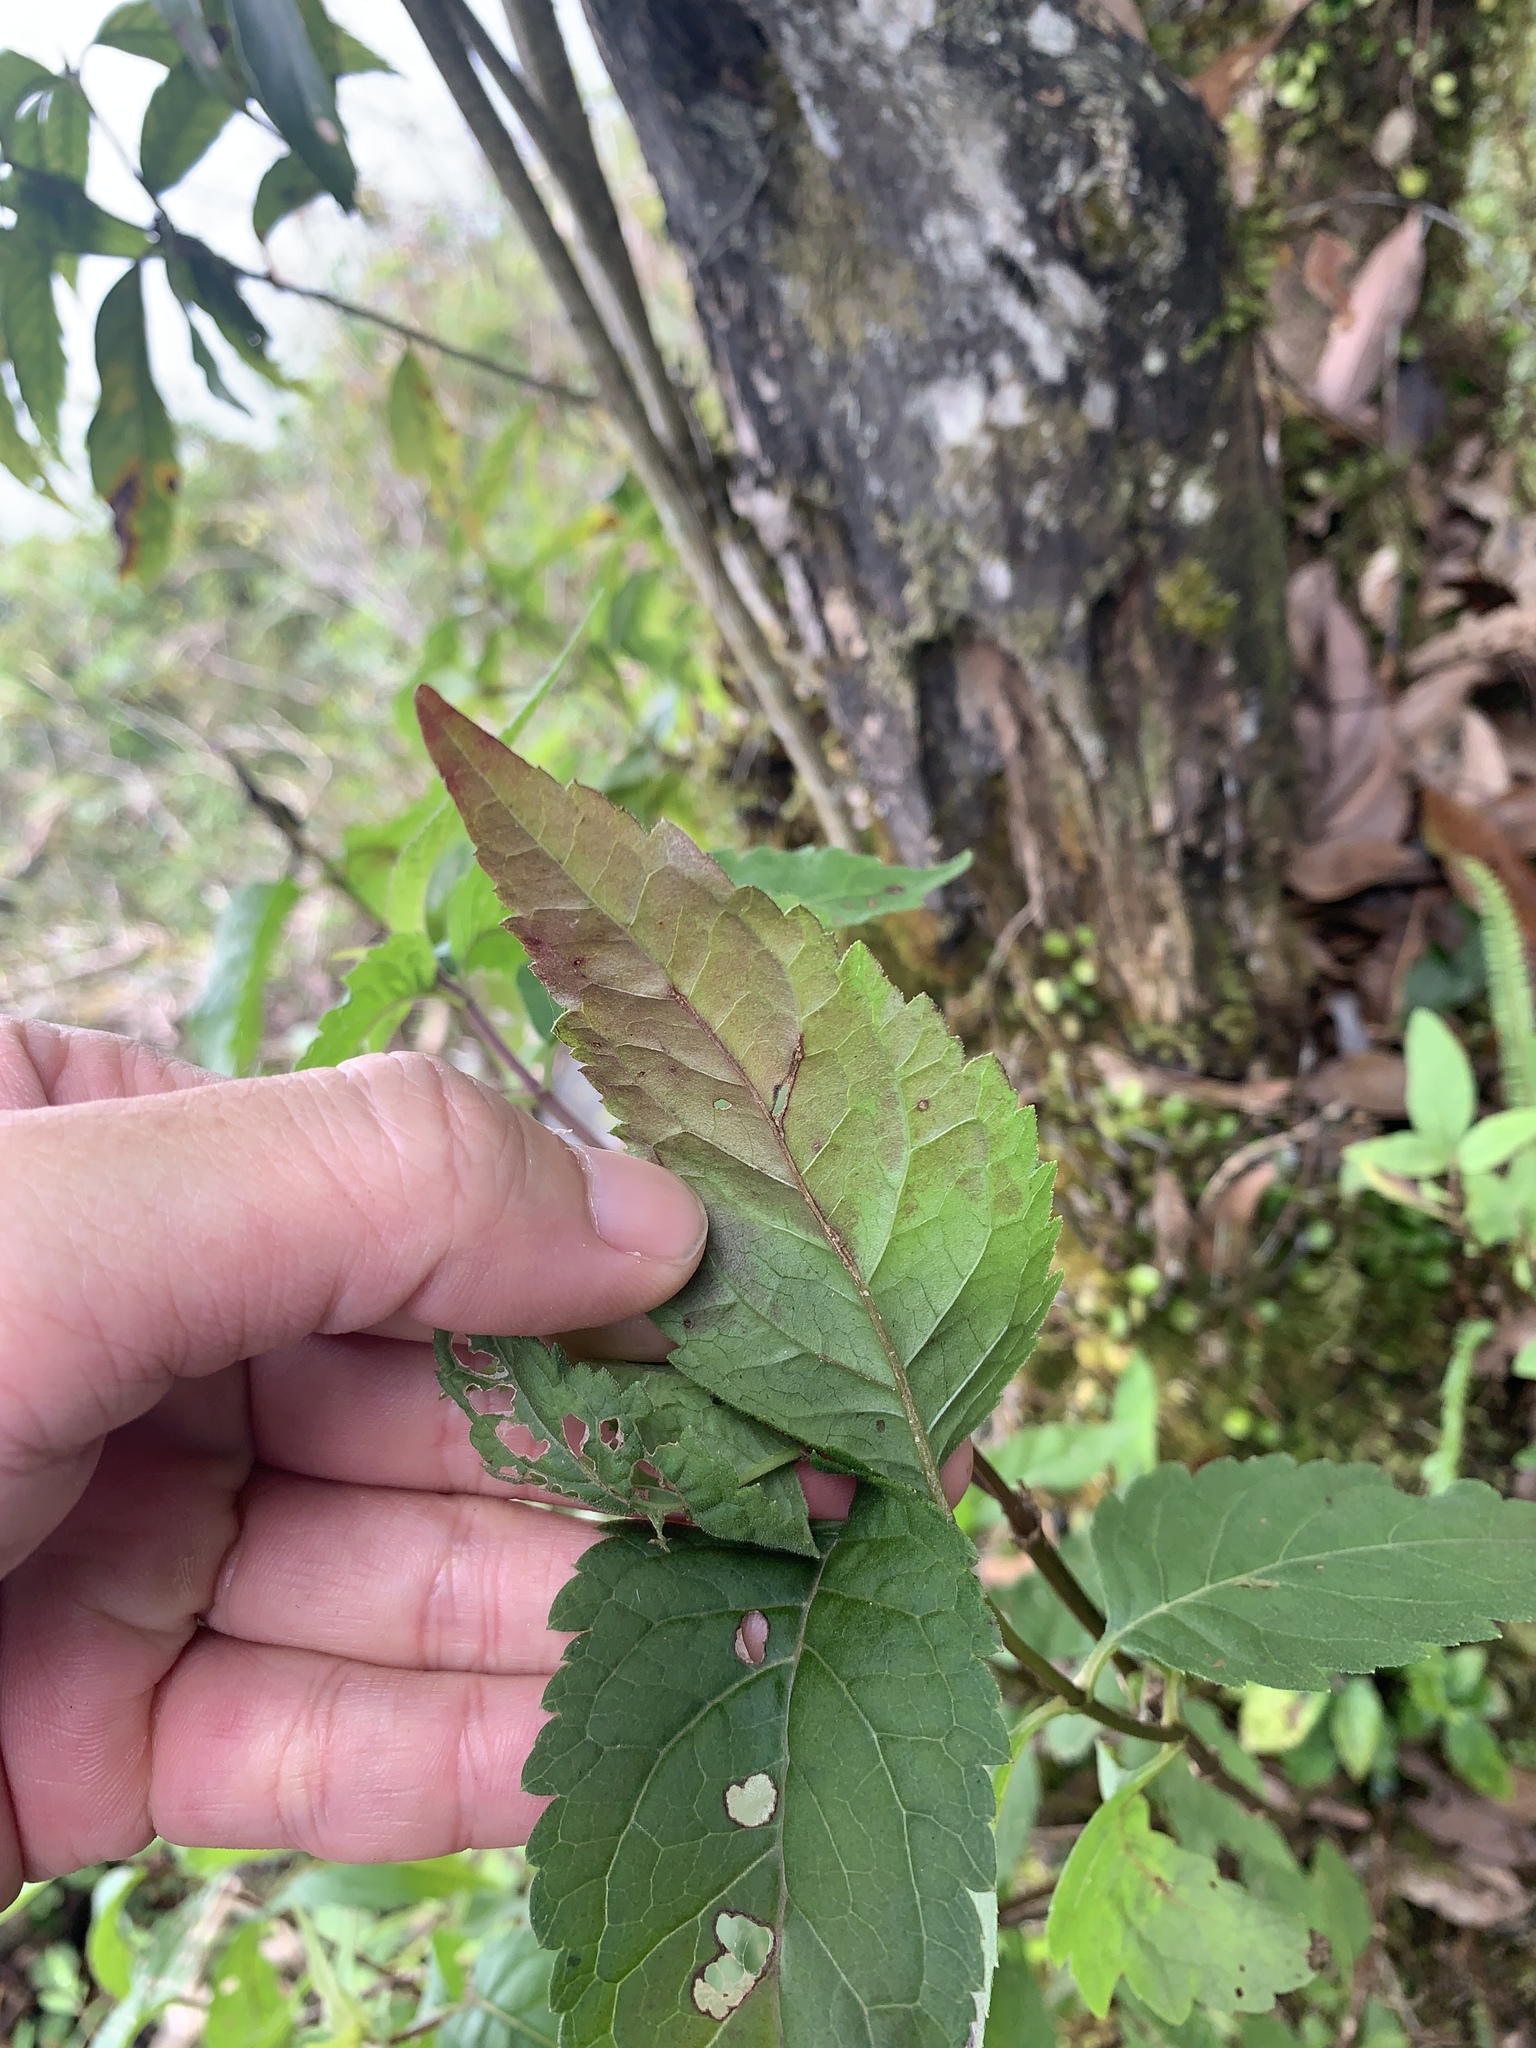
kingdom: Plantae
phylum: Tracheophyta
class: Magnoliopsida
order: Asterales
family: Asteraceae
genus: Eupatorium
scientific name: Eupatorium formosanum
